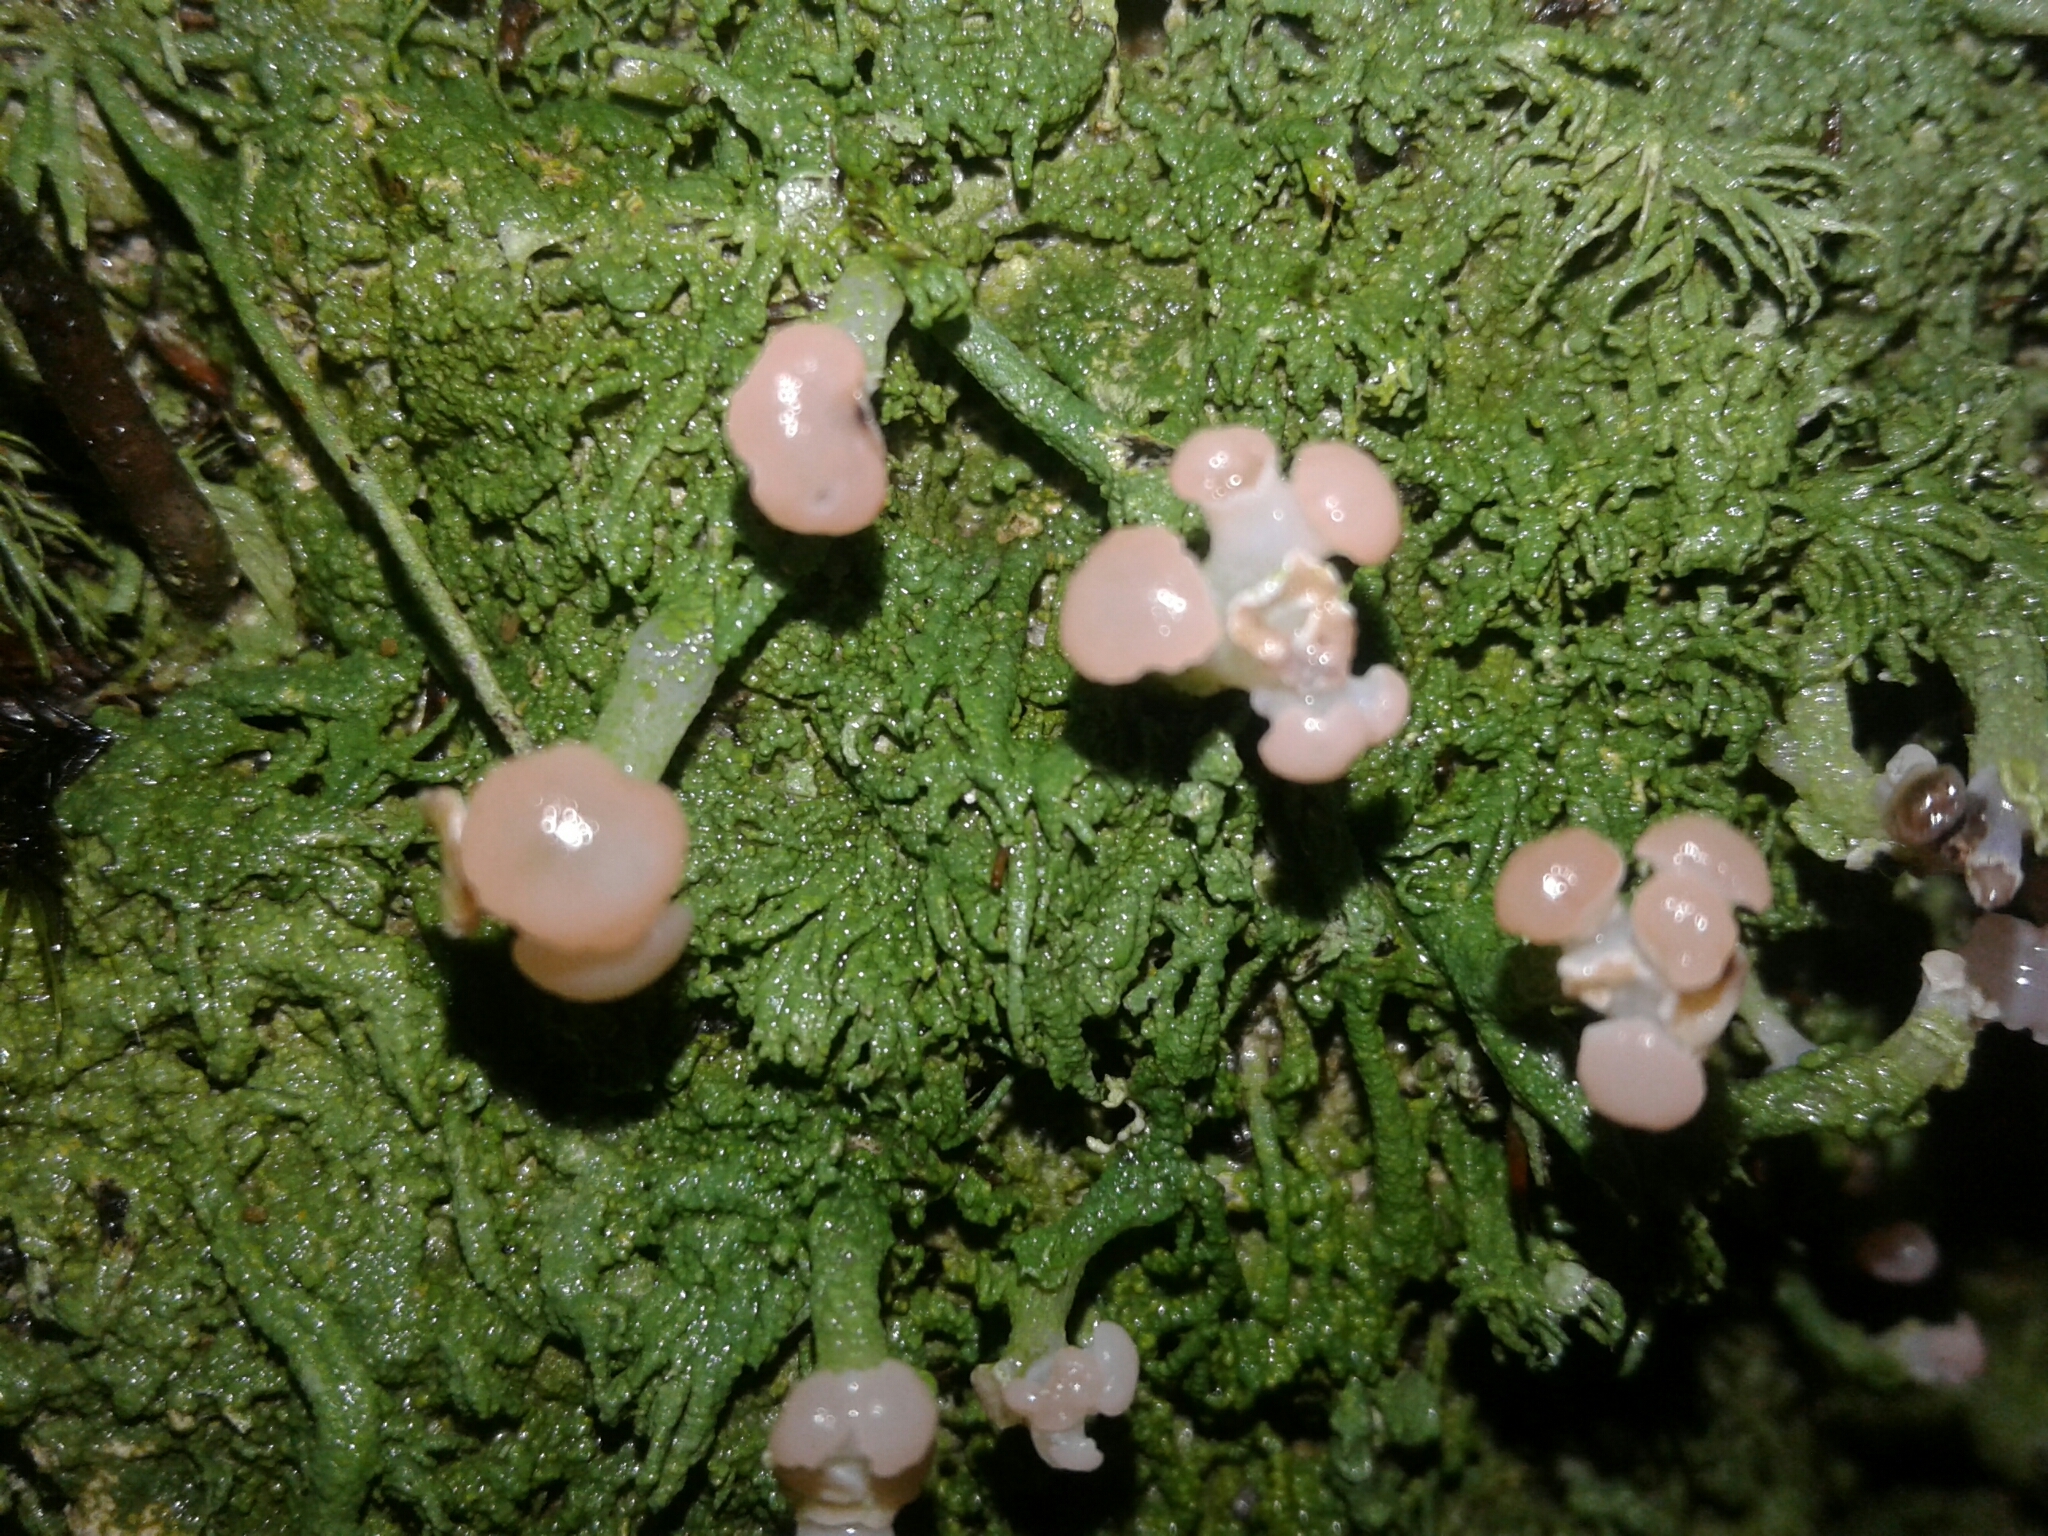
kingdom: Fungi
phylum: Ascomycota
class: Lecanoromycetes
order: Baeomycetales
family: Baeomycetaceae
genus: Baeomyces
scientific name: Baeomyces heteromorphus
